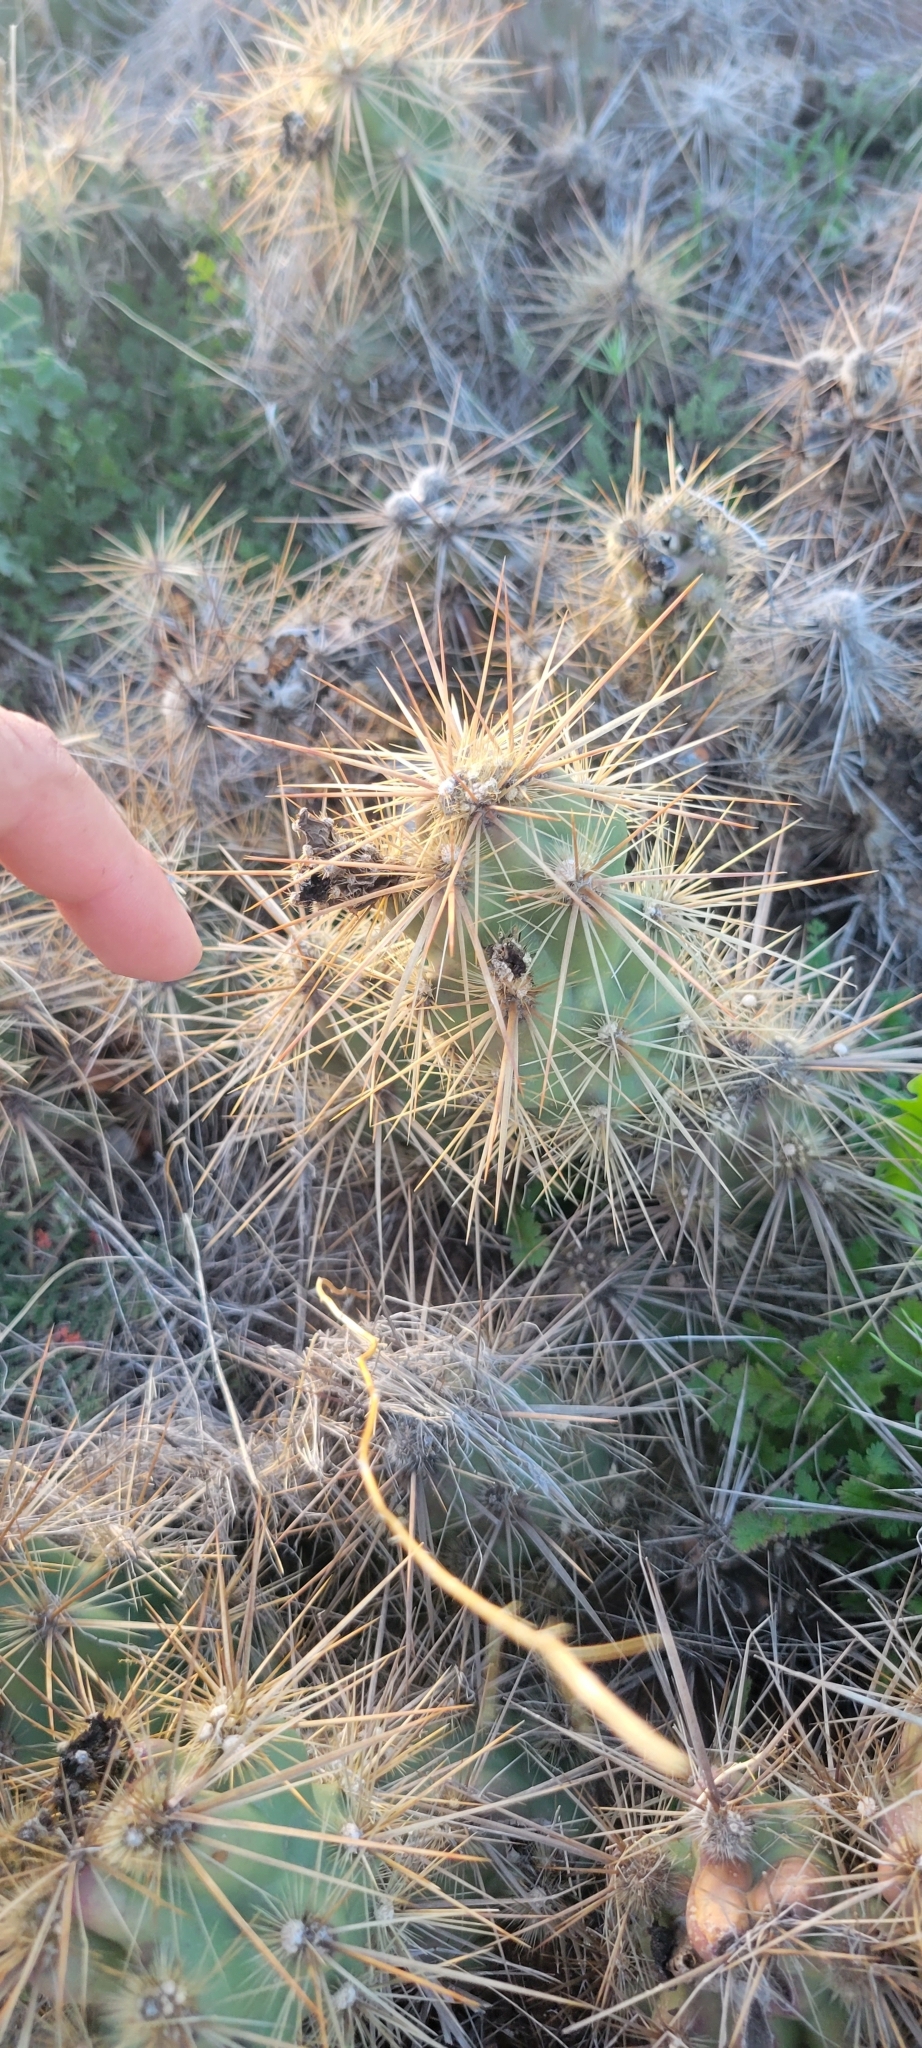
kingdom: Plantae
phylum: Tracheophyta
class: Magnoliopsida
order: Caryophyllales
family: Cactaceae
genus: Grusonia
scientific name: Grusonia emoryi
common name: Stanly's club cholla
